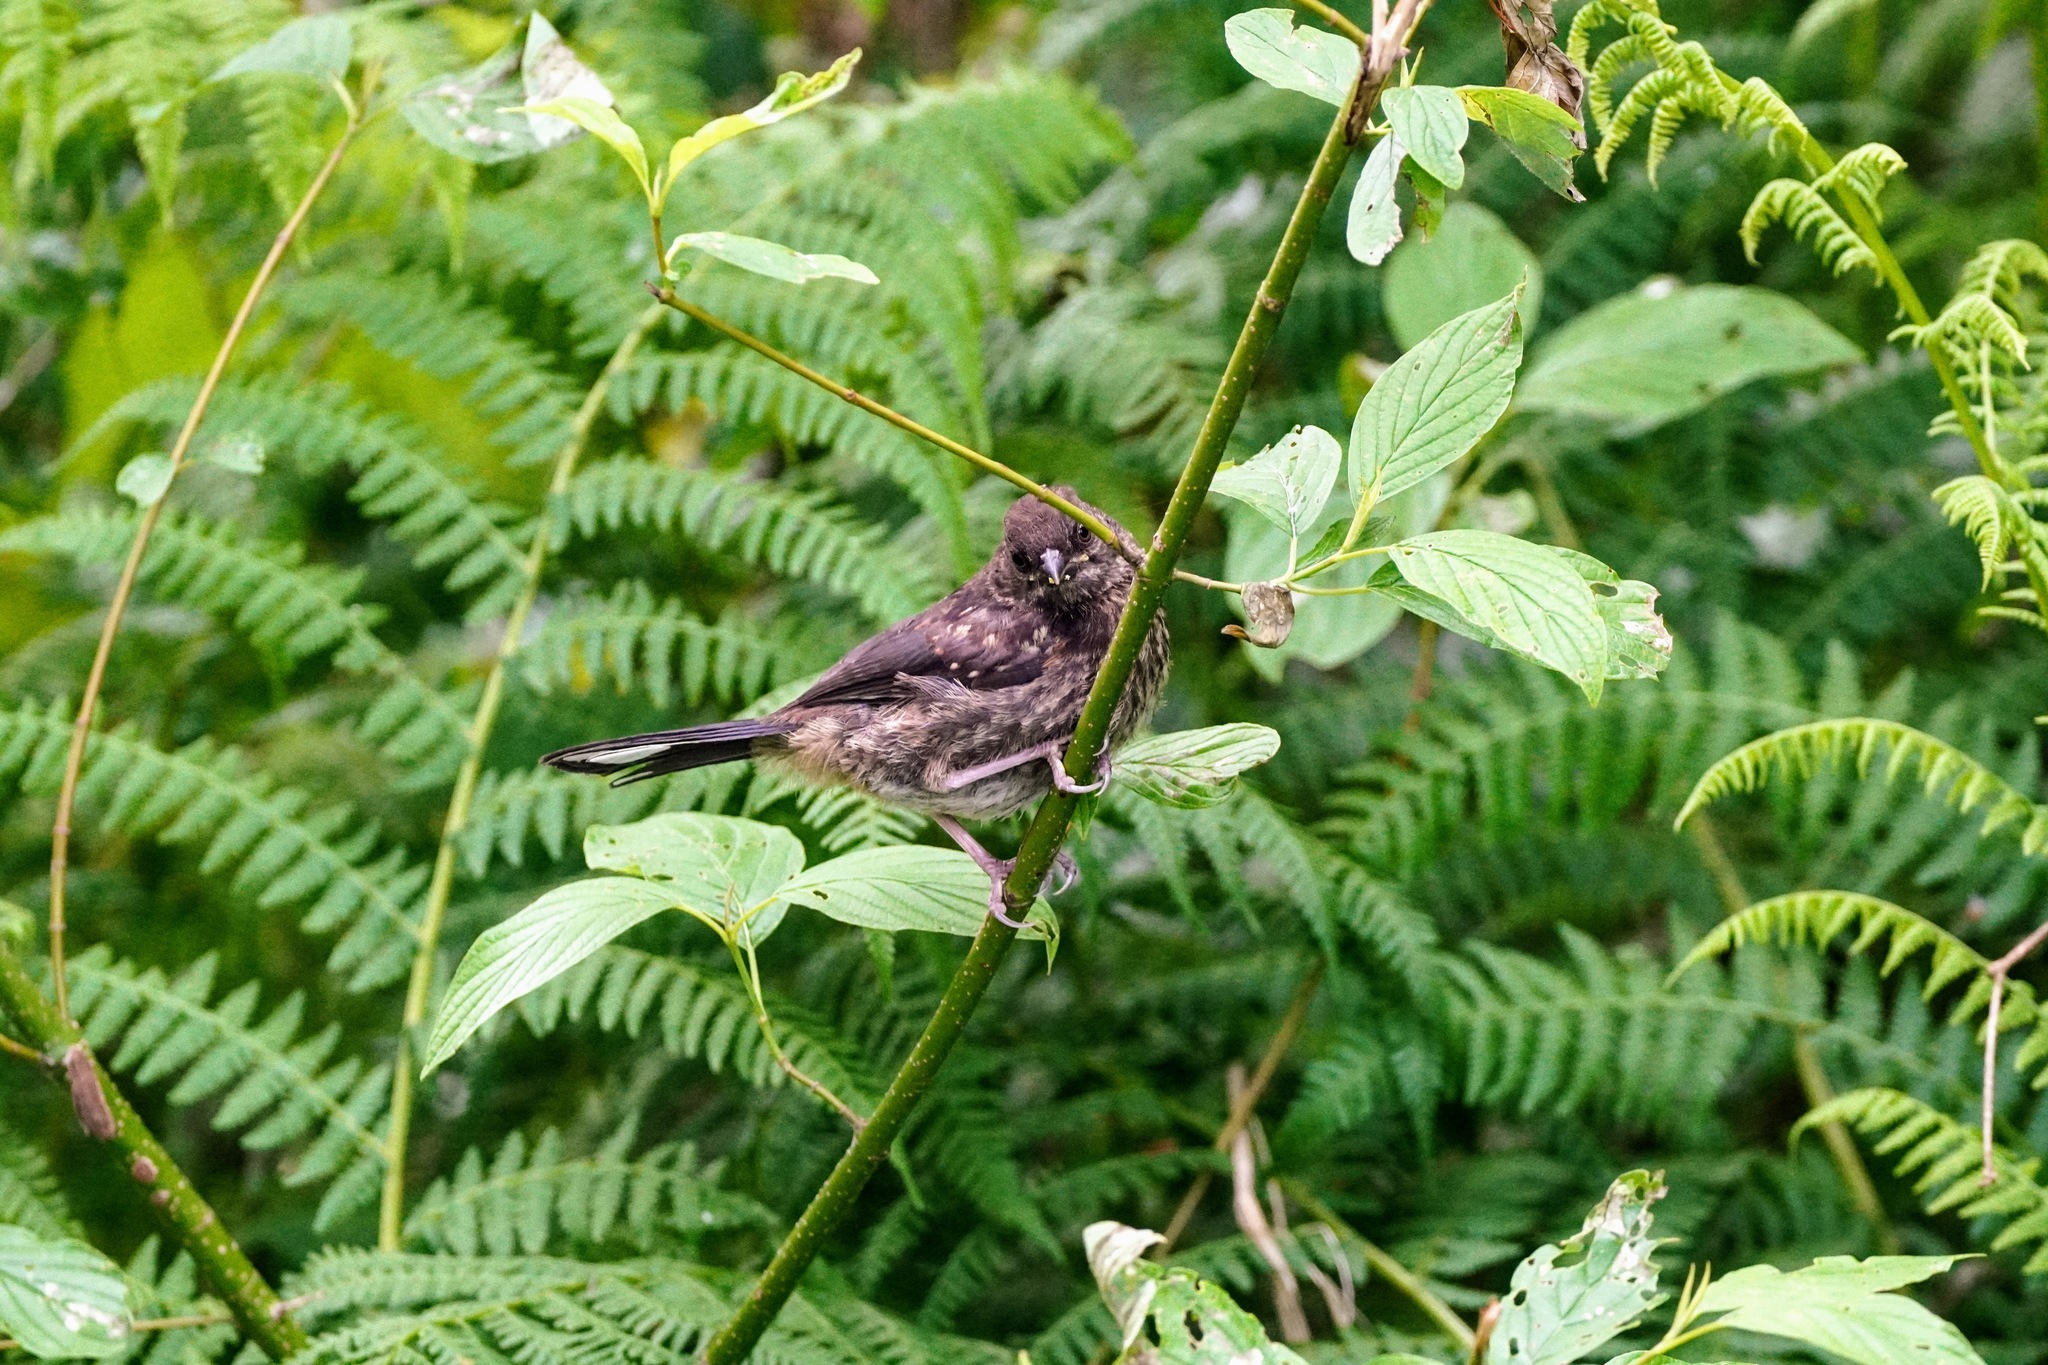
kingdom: Animalia
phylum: Chordata
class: Aves
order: Passeriformes
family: Passerellidae
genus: Pipilo
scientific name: Pipilo maculatus
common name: Spotted towhee
